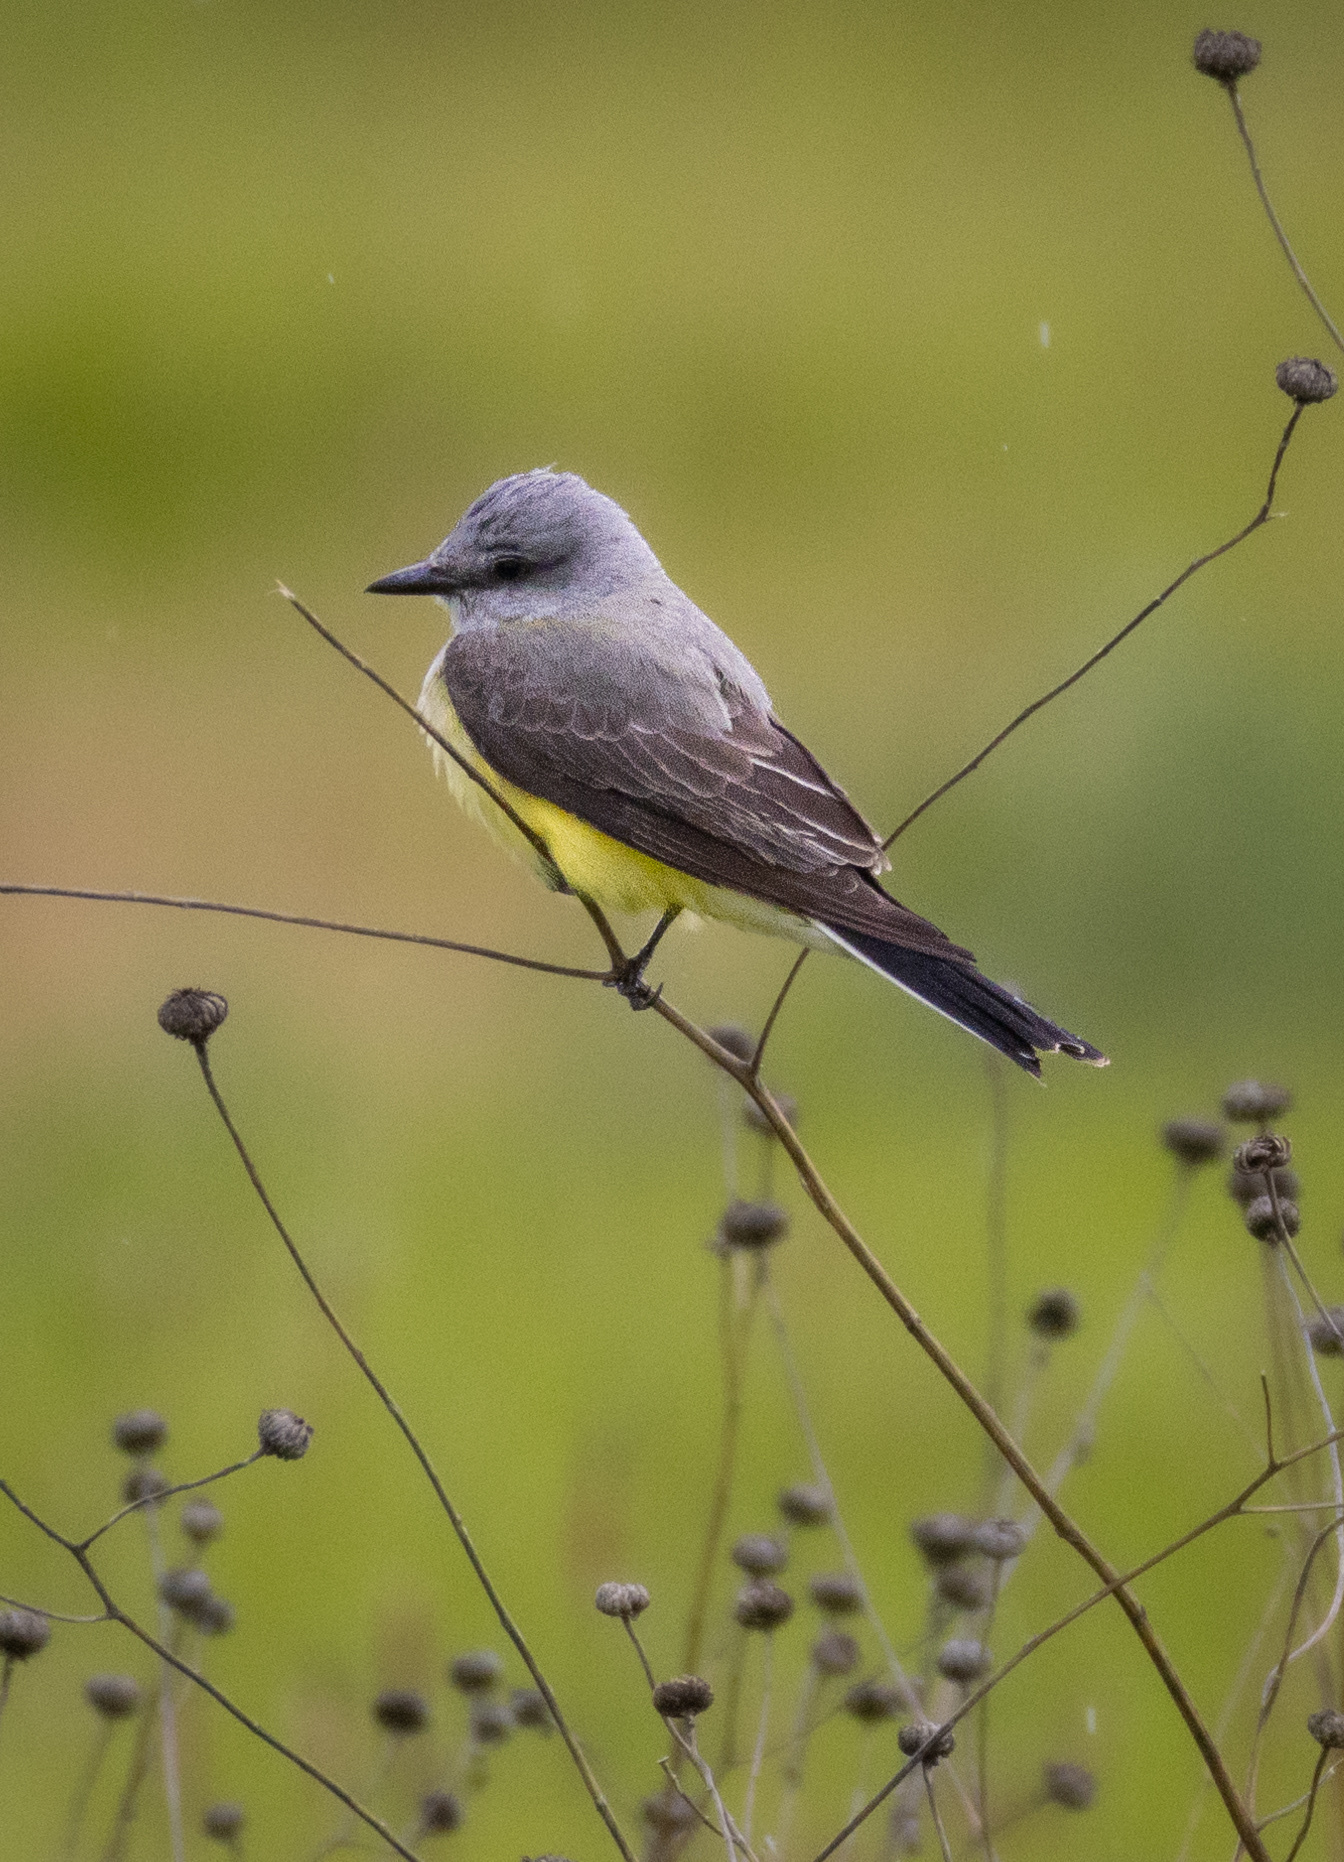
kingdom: Animalia
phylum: Chordata
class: Aves
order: Passeriformes
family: Tyrannidae
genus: Tyrannus
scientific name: Tyrannus verticalis
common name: Western kingbird
